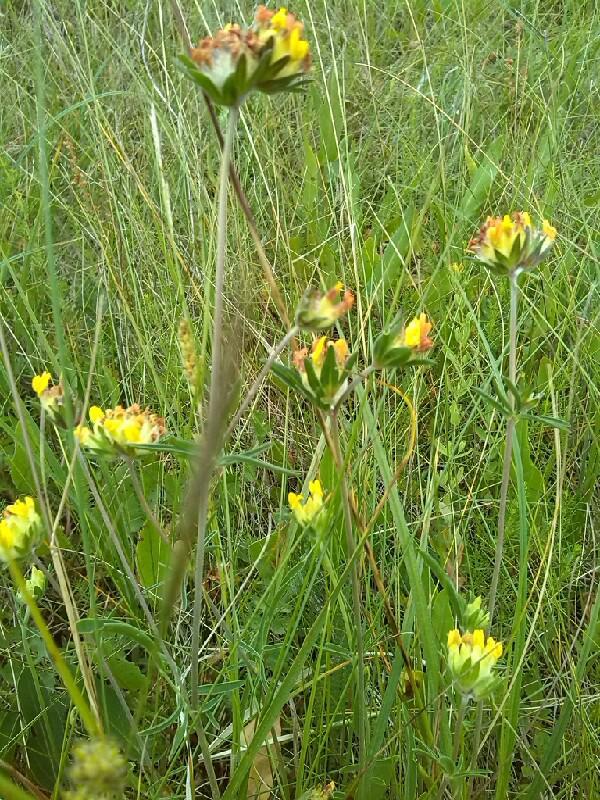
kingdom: Plantae
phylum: Tracheophyta
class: Magnoliopsida
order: Fabales
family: Fabaceae
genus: Anthyllis
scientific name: Anthyllis vulneraria
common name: Kidney vetch
